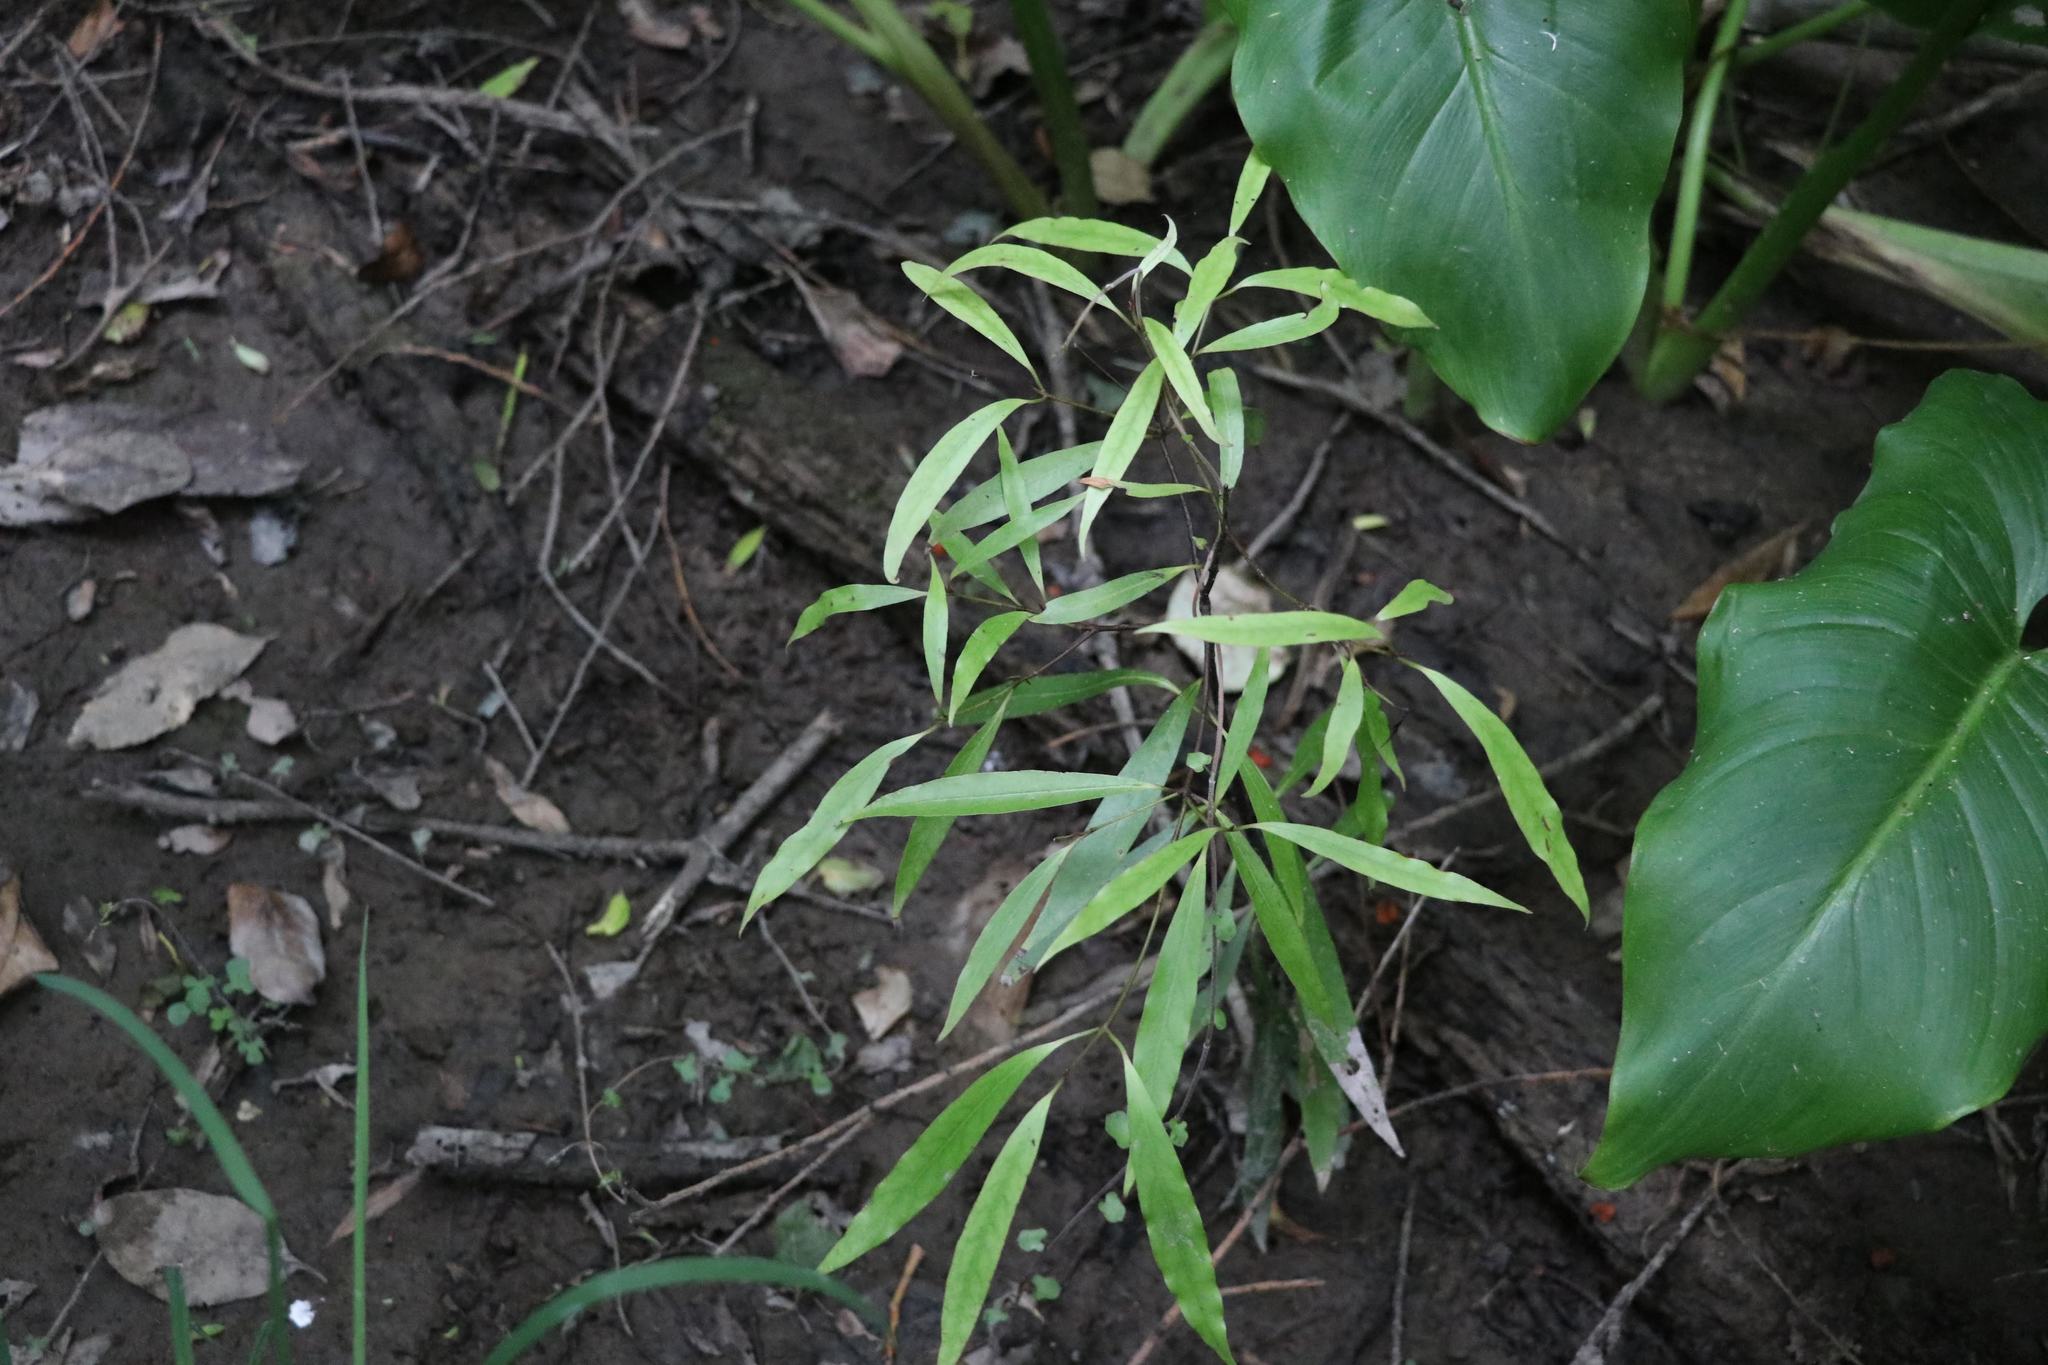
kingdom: Plantae
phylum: Tracheophyta
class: Magnoliopsida
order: Laurales
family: Lauraceae
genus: Beilschmiedia
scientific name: Beilschmiedia tawa
